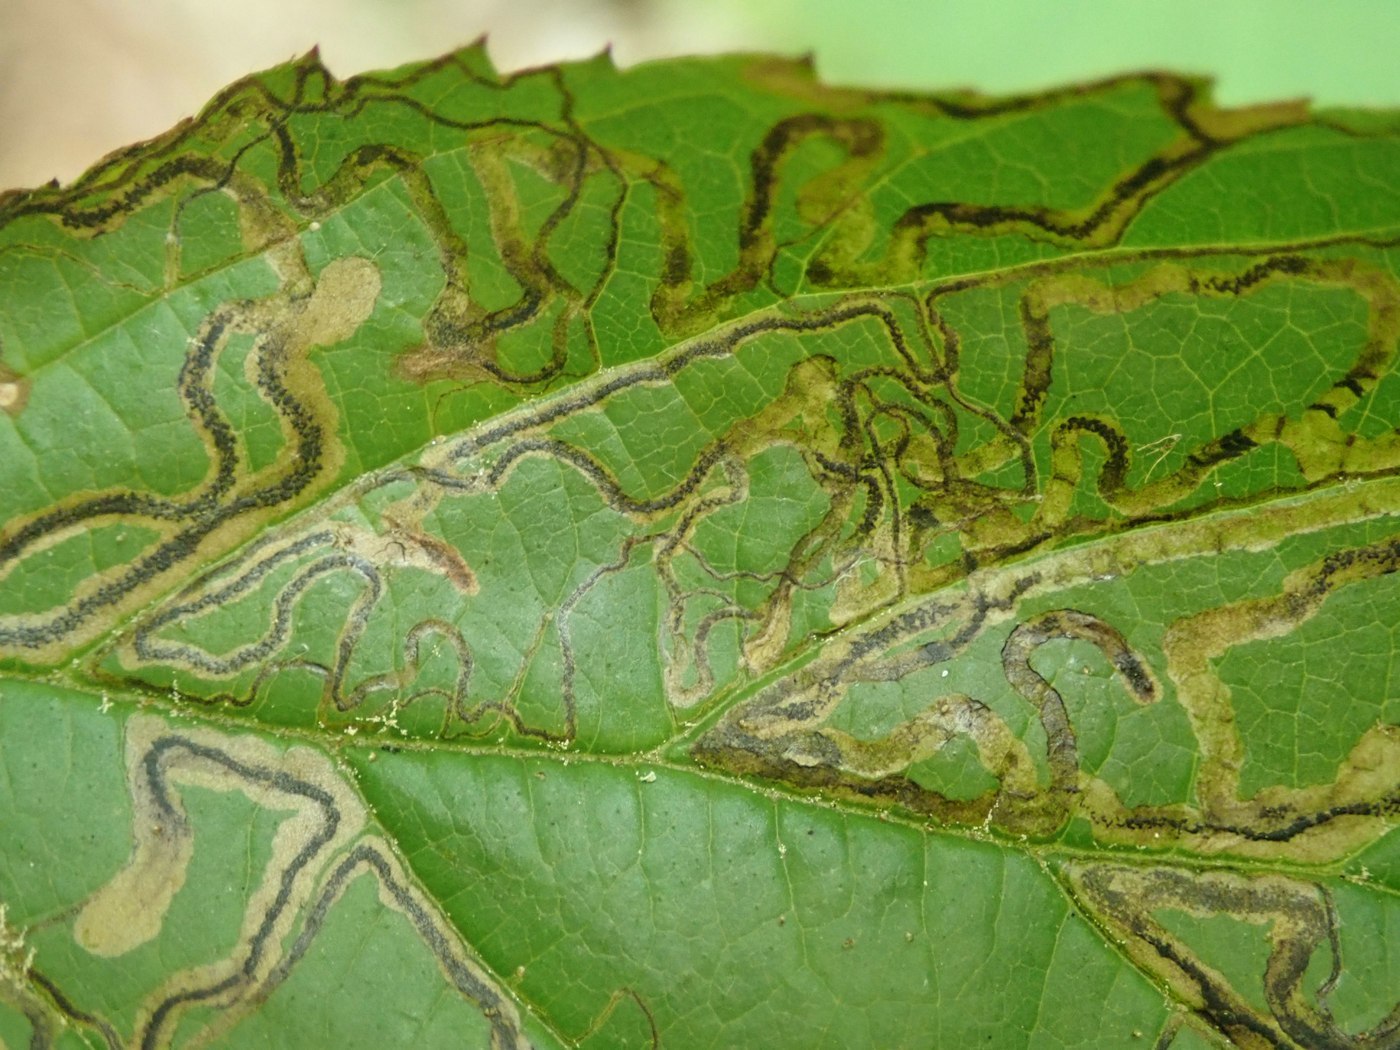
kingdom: Animalia
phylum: Arthropoda
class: Insecta
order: Lepidoptera
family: Nepticulidae
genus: Stigmella
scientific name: Stigmella villosella
